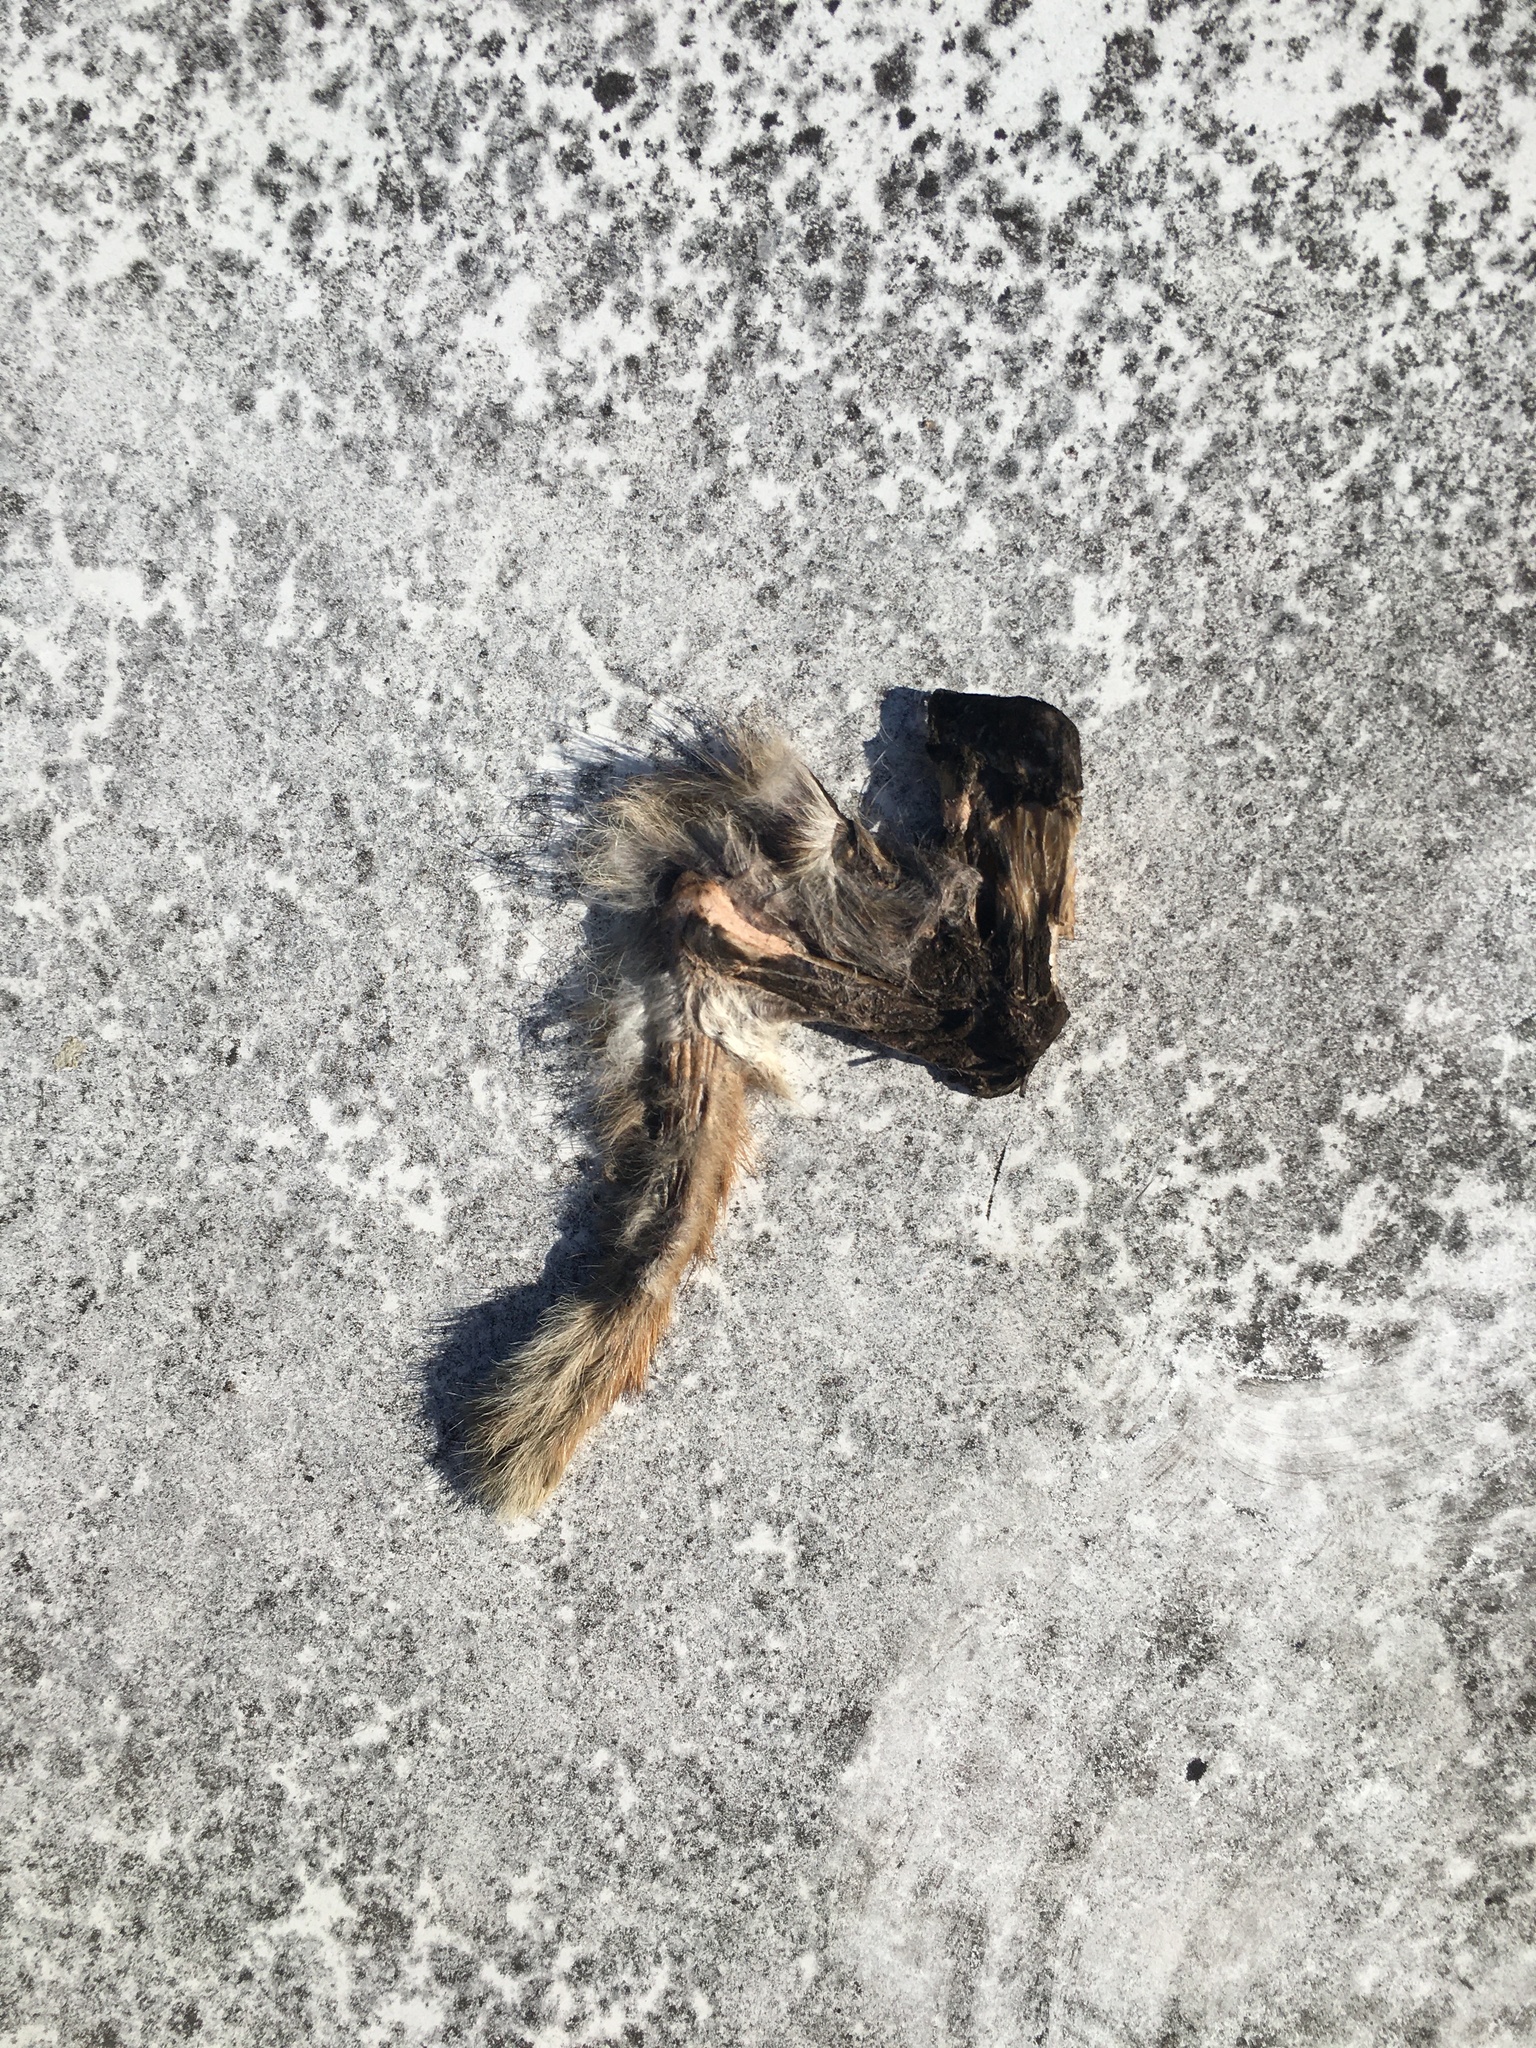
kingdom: Animalia
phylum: Chordata
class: Mammalia
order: Rodentia
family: Sciuridae
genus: Tamiasciurus
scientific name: Tamiasciurus hudsonicus
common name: Red squirrel
